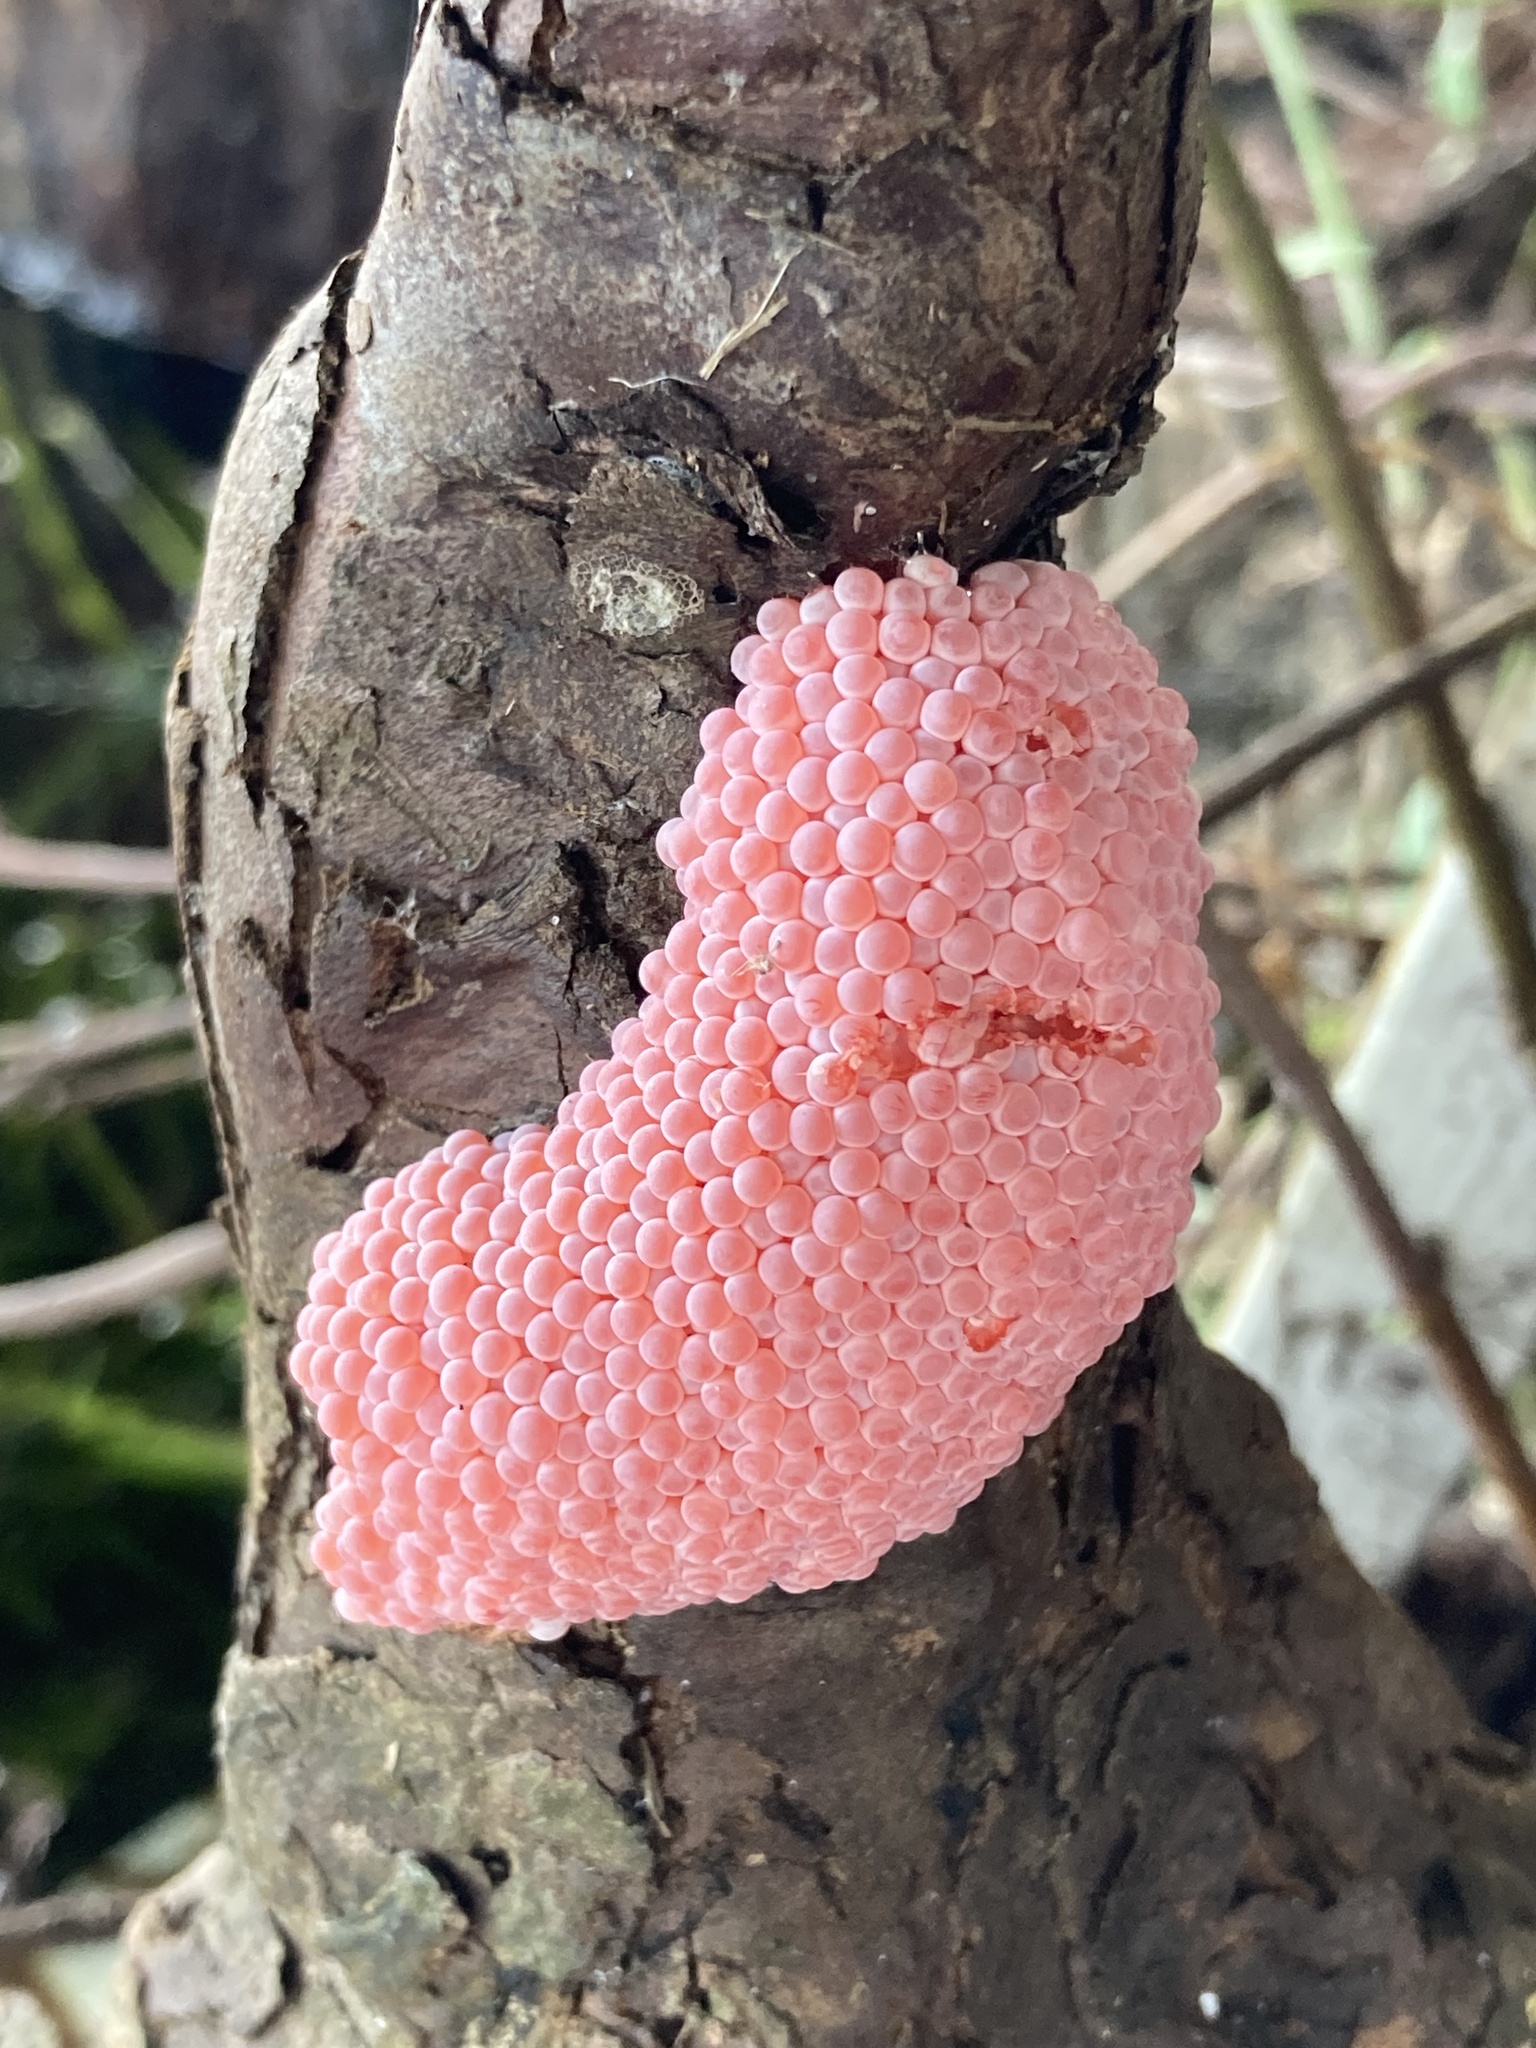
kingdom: Animalia
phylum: Mollusca
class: Gastropoda
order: Architaenioglossa
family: Ampullariidae
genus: Pomacea
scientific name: Pomacea maculata
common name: Giant applesnail
